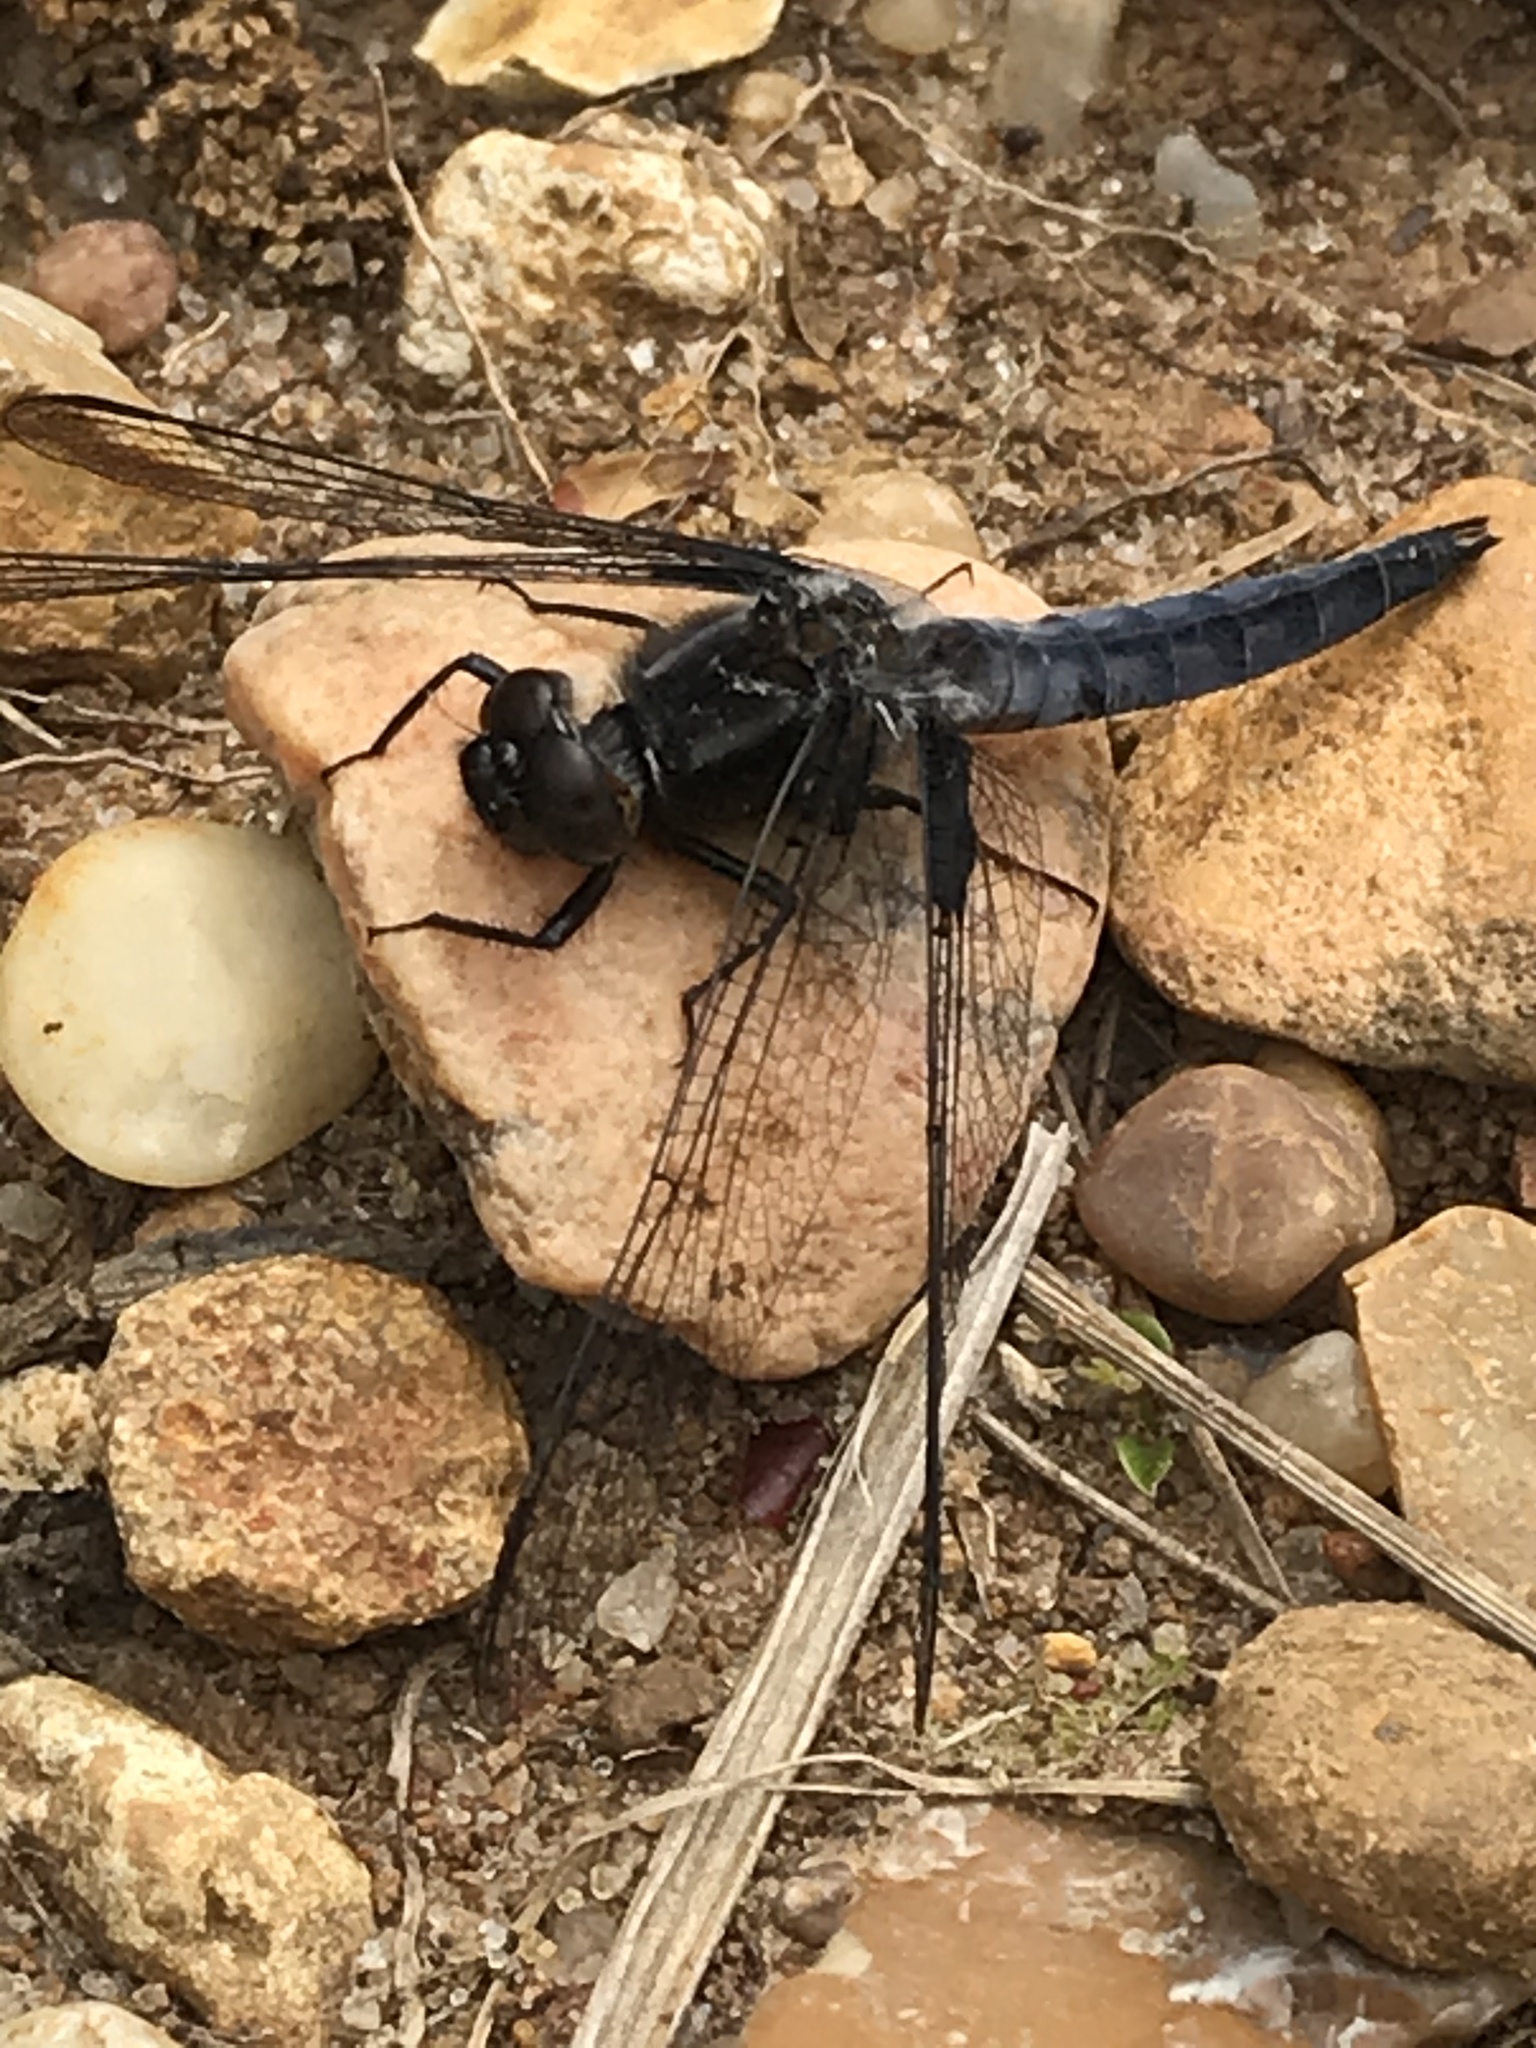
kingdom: Animalia
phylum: Arthropoda
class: Insecta
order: Odonata
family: Libellulidae
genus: Ladona
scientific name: Ladona deplanata
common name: Blue corporal
